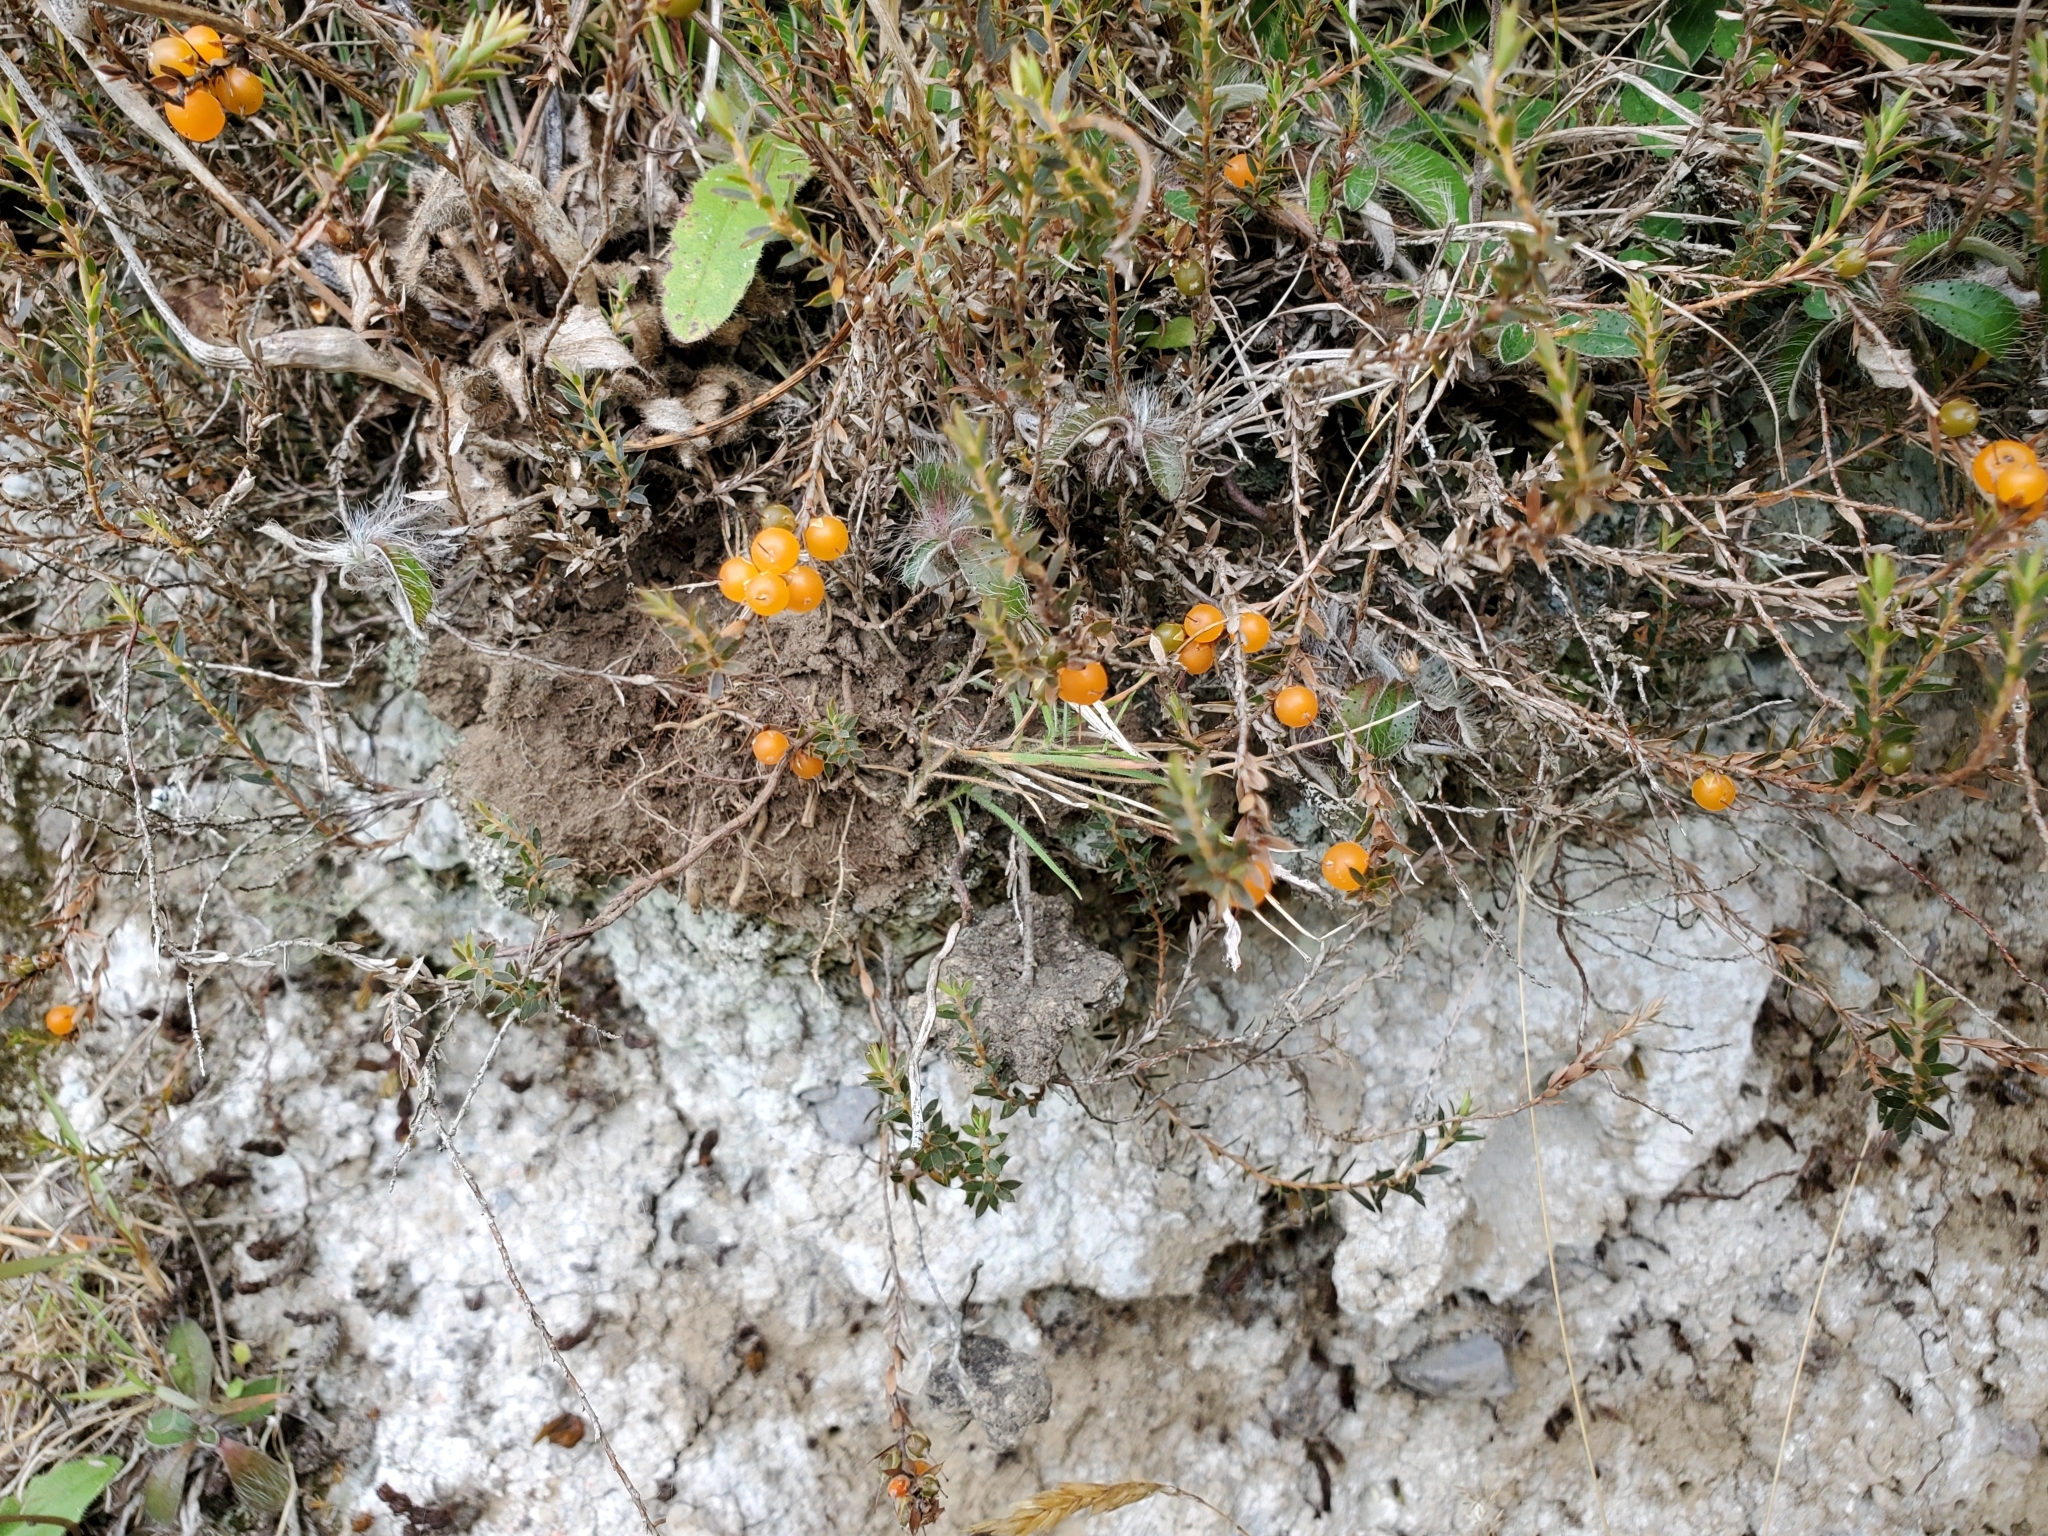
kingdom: Plantae
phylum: Tracheophyta
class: Magnoliopsida
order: Ericales
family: Ericaceae
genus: Styphelia
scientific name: Styphelia nesophila
